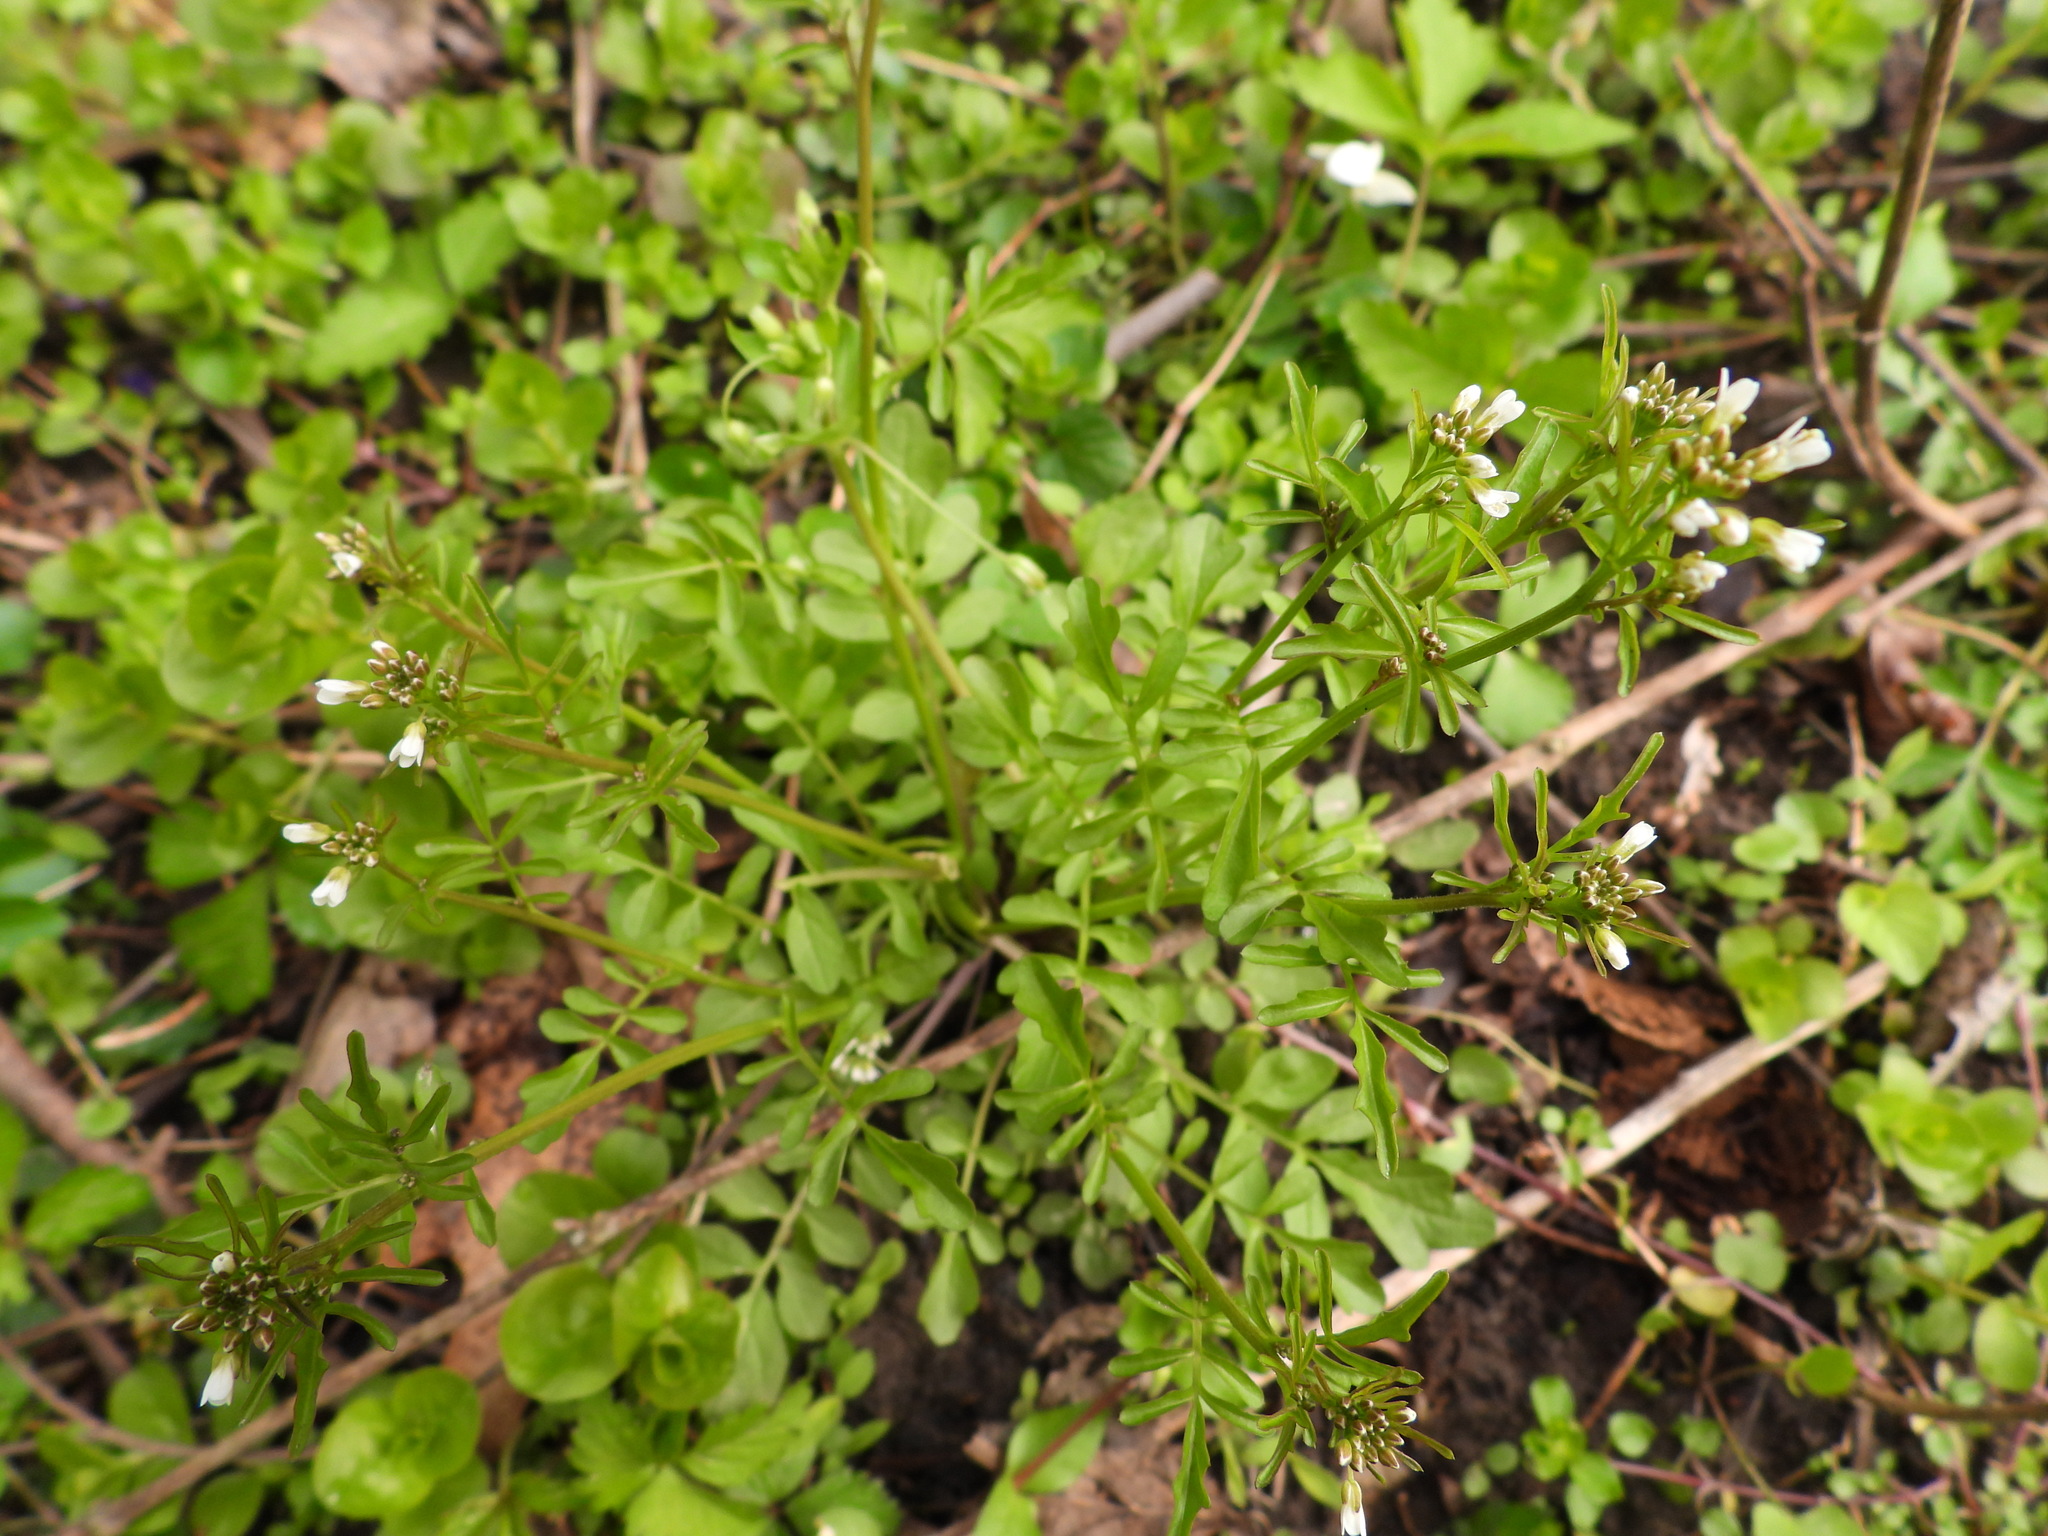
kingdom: Plantae
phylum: Tracheophyta
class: Magnoliopsida
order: Brassicales
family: Brassicaceae
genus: Cardamine
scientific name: Cardamine pensylvanica
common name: Pennsylvania bittercress
